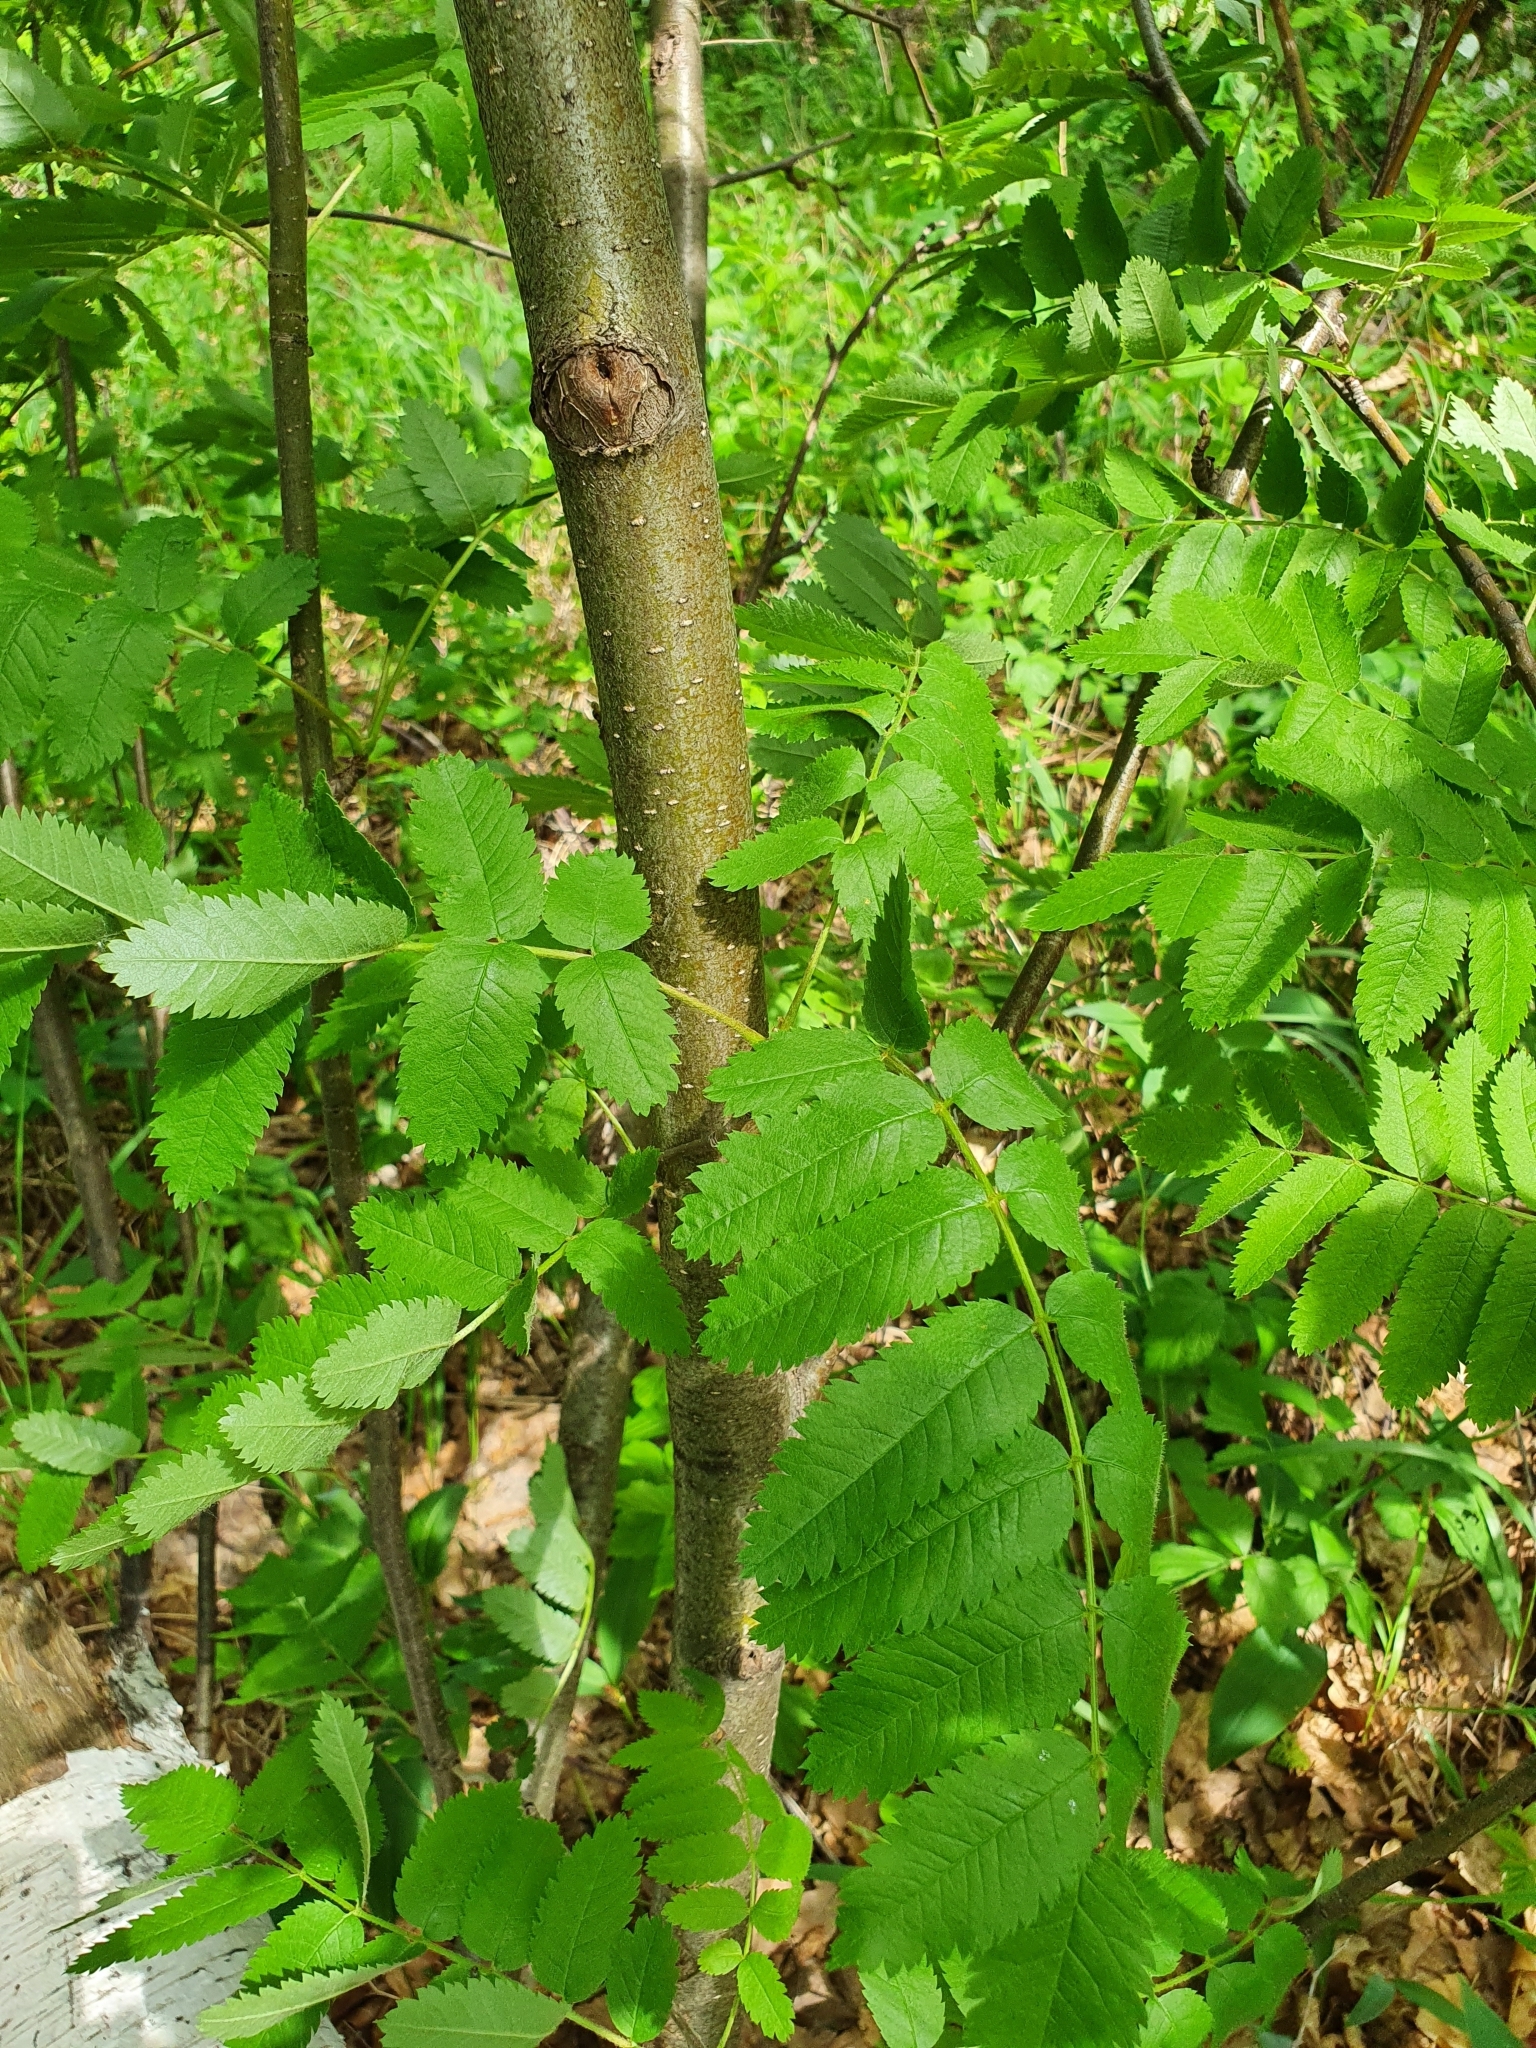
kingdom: Plantae
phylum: Tracheophyta
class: Magnoliopsida
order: Rosales
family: Rosaceae
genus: Sorbus
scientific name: Sorbus aucuparia
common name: Rowan
